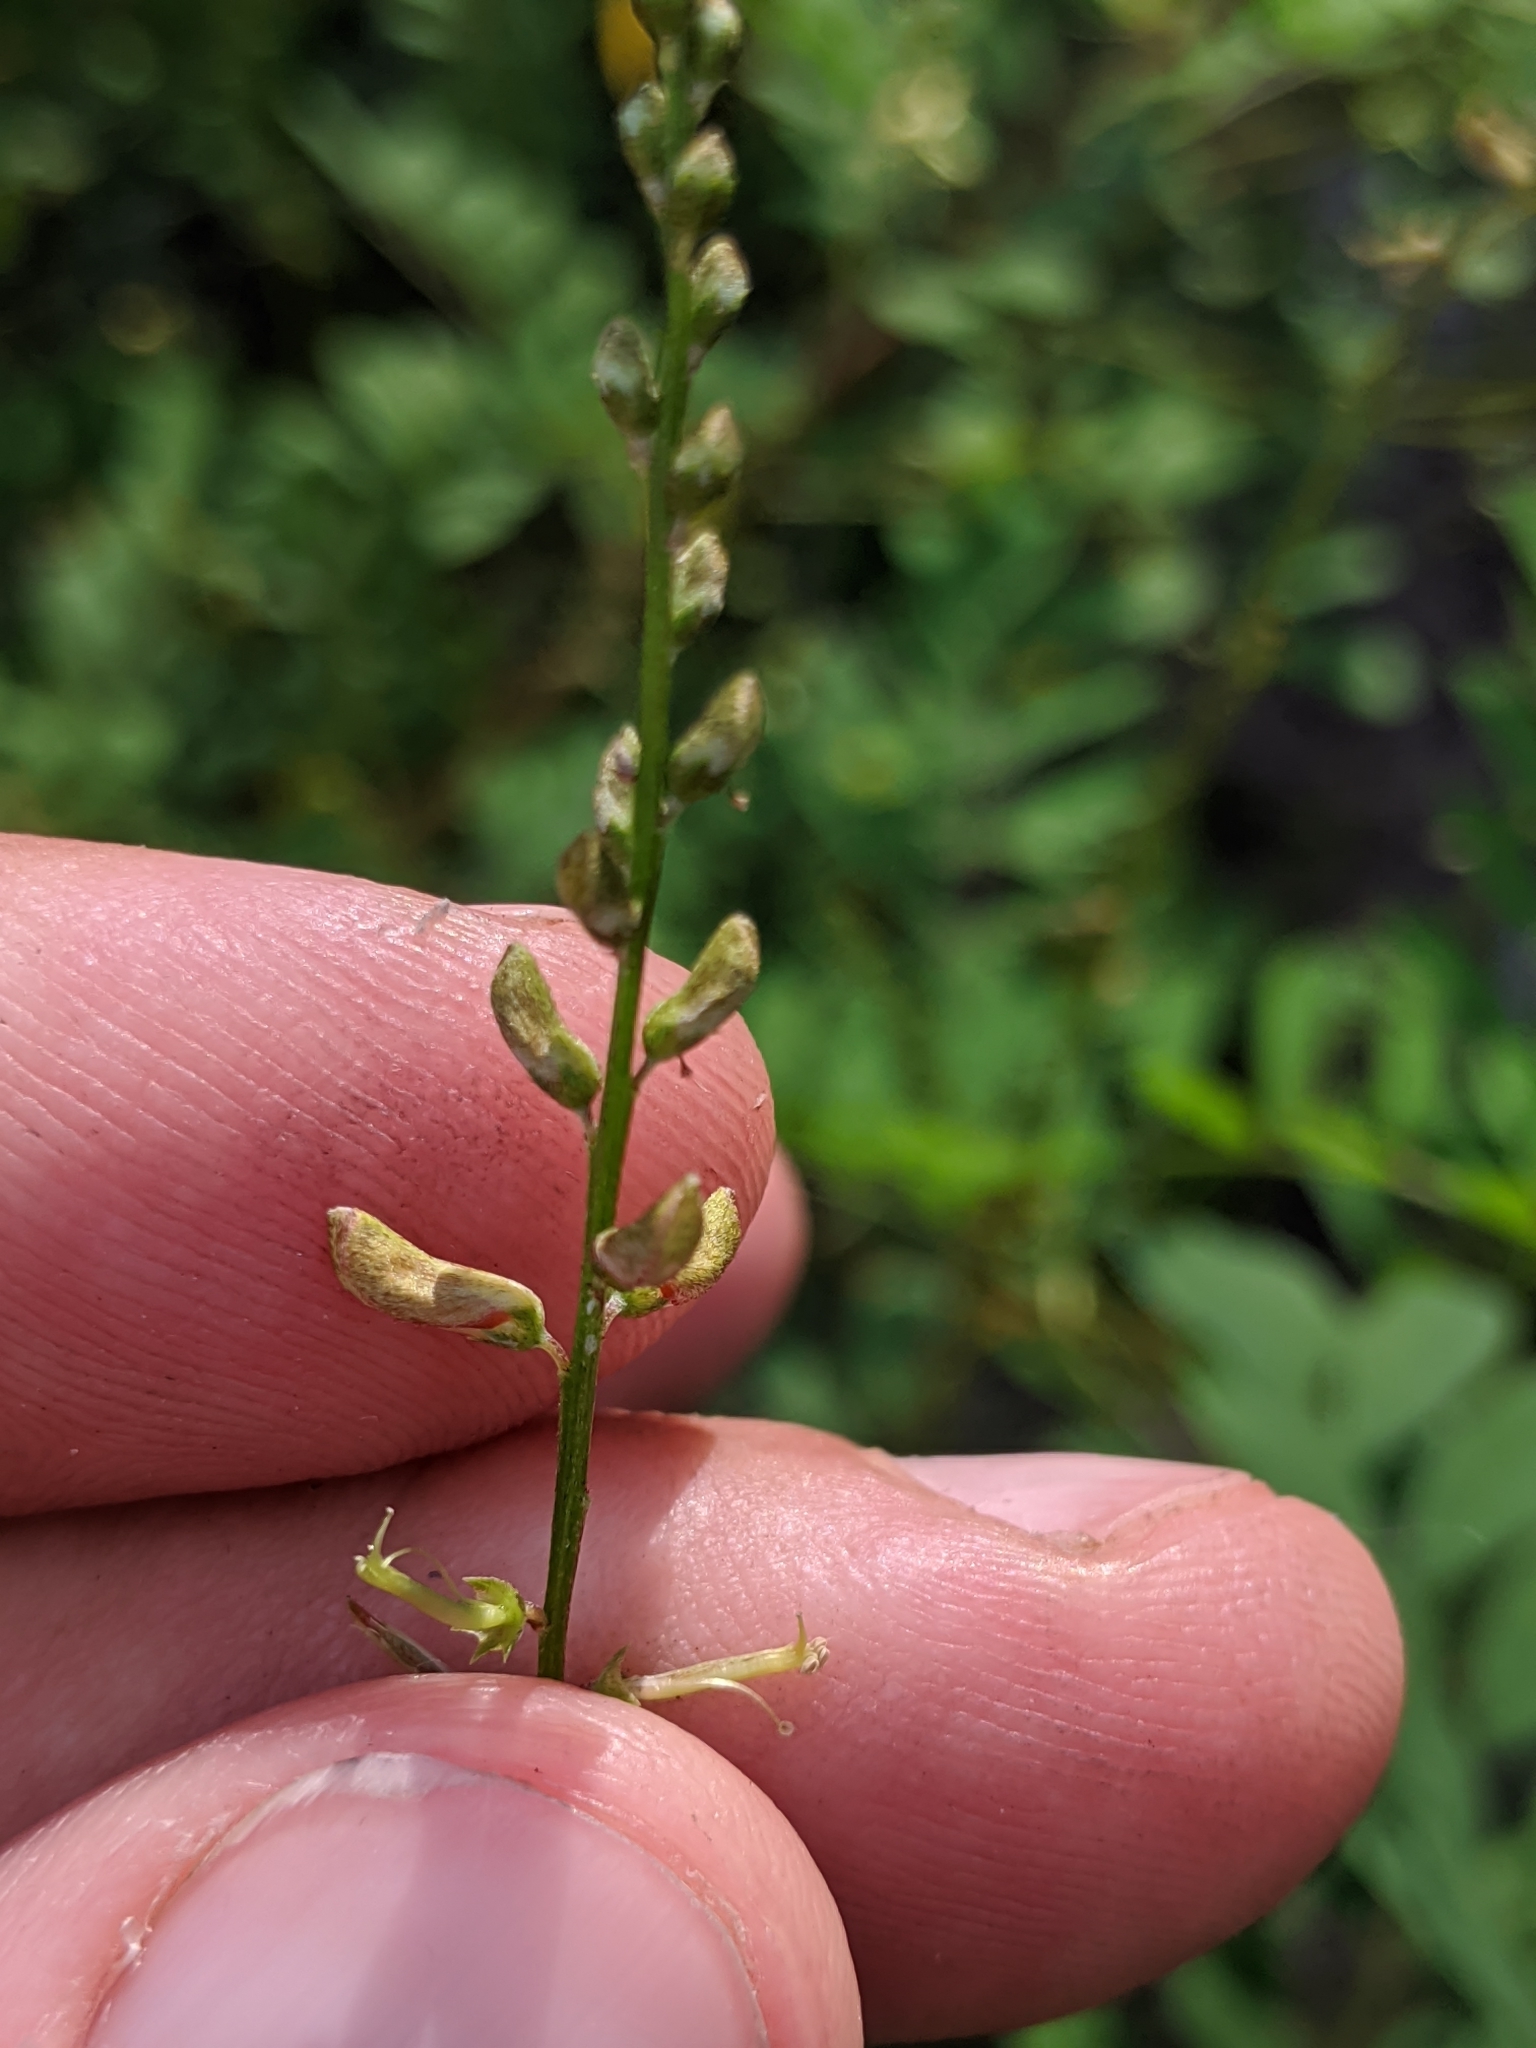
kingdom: Plantae
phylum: Tracheophyta
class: Magnoliopsida
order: Fabales
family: Fabaceae
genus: Indigofera
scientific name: Indigofera caroliniana
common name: Wild indigo
